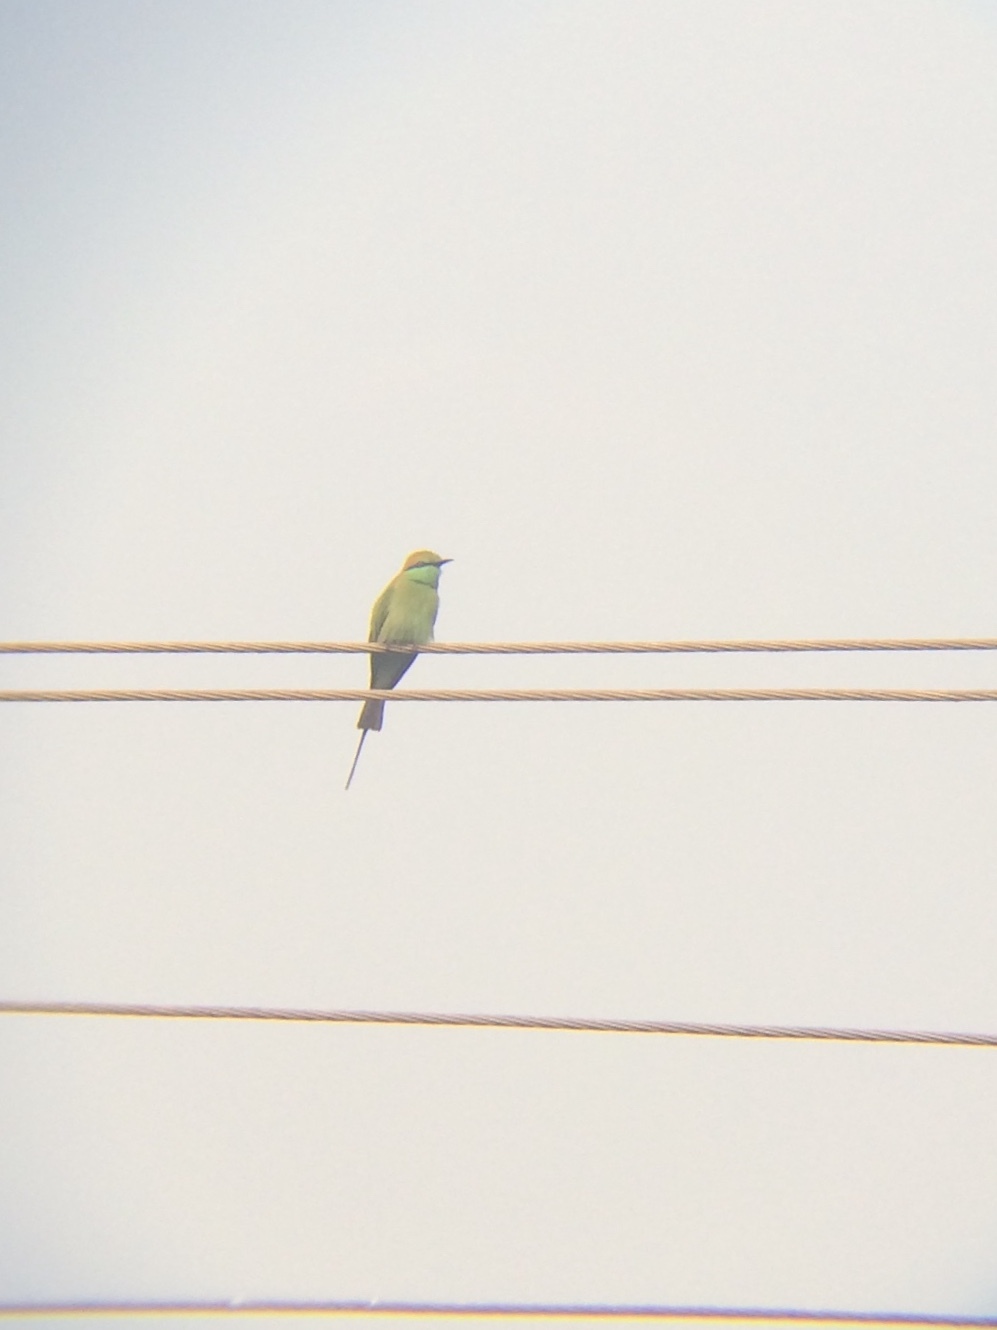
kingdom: Animalia
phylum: Chordata
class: Aves
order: Coraciiformes
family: Meropidae
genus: Merops
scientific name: Merops orientalis
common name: Green bee-eater
